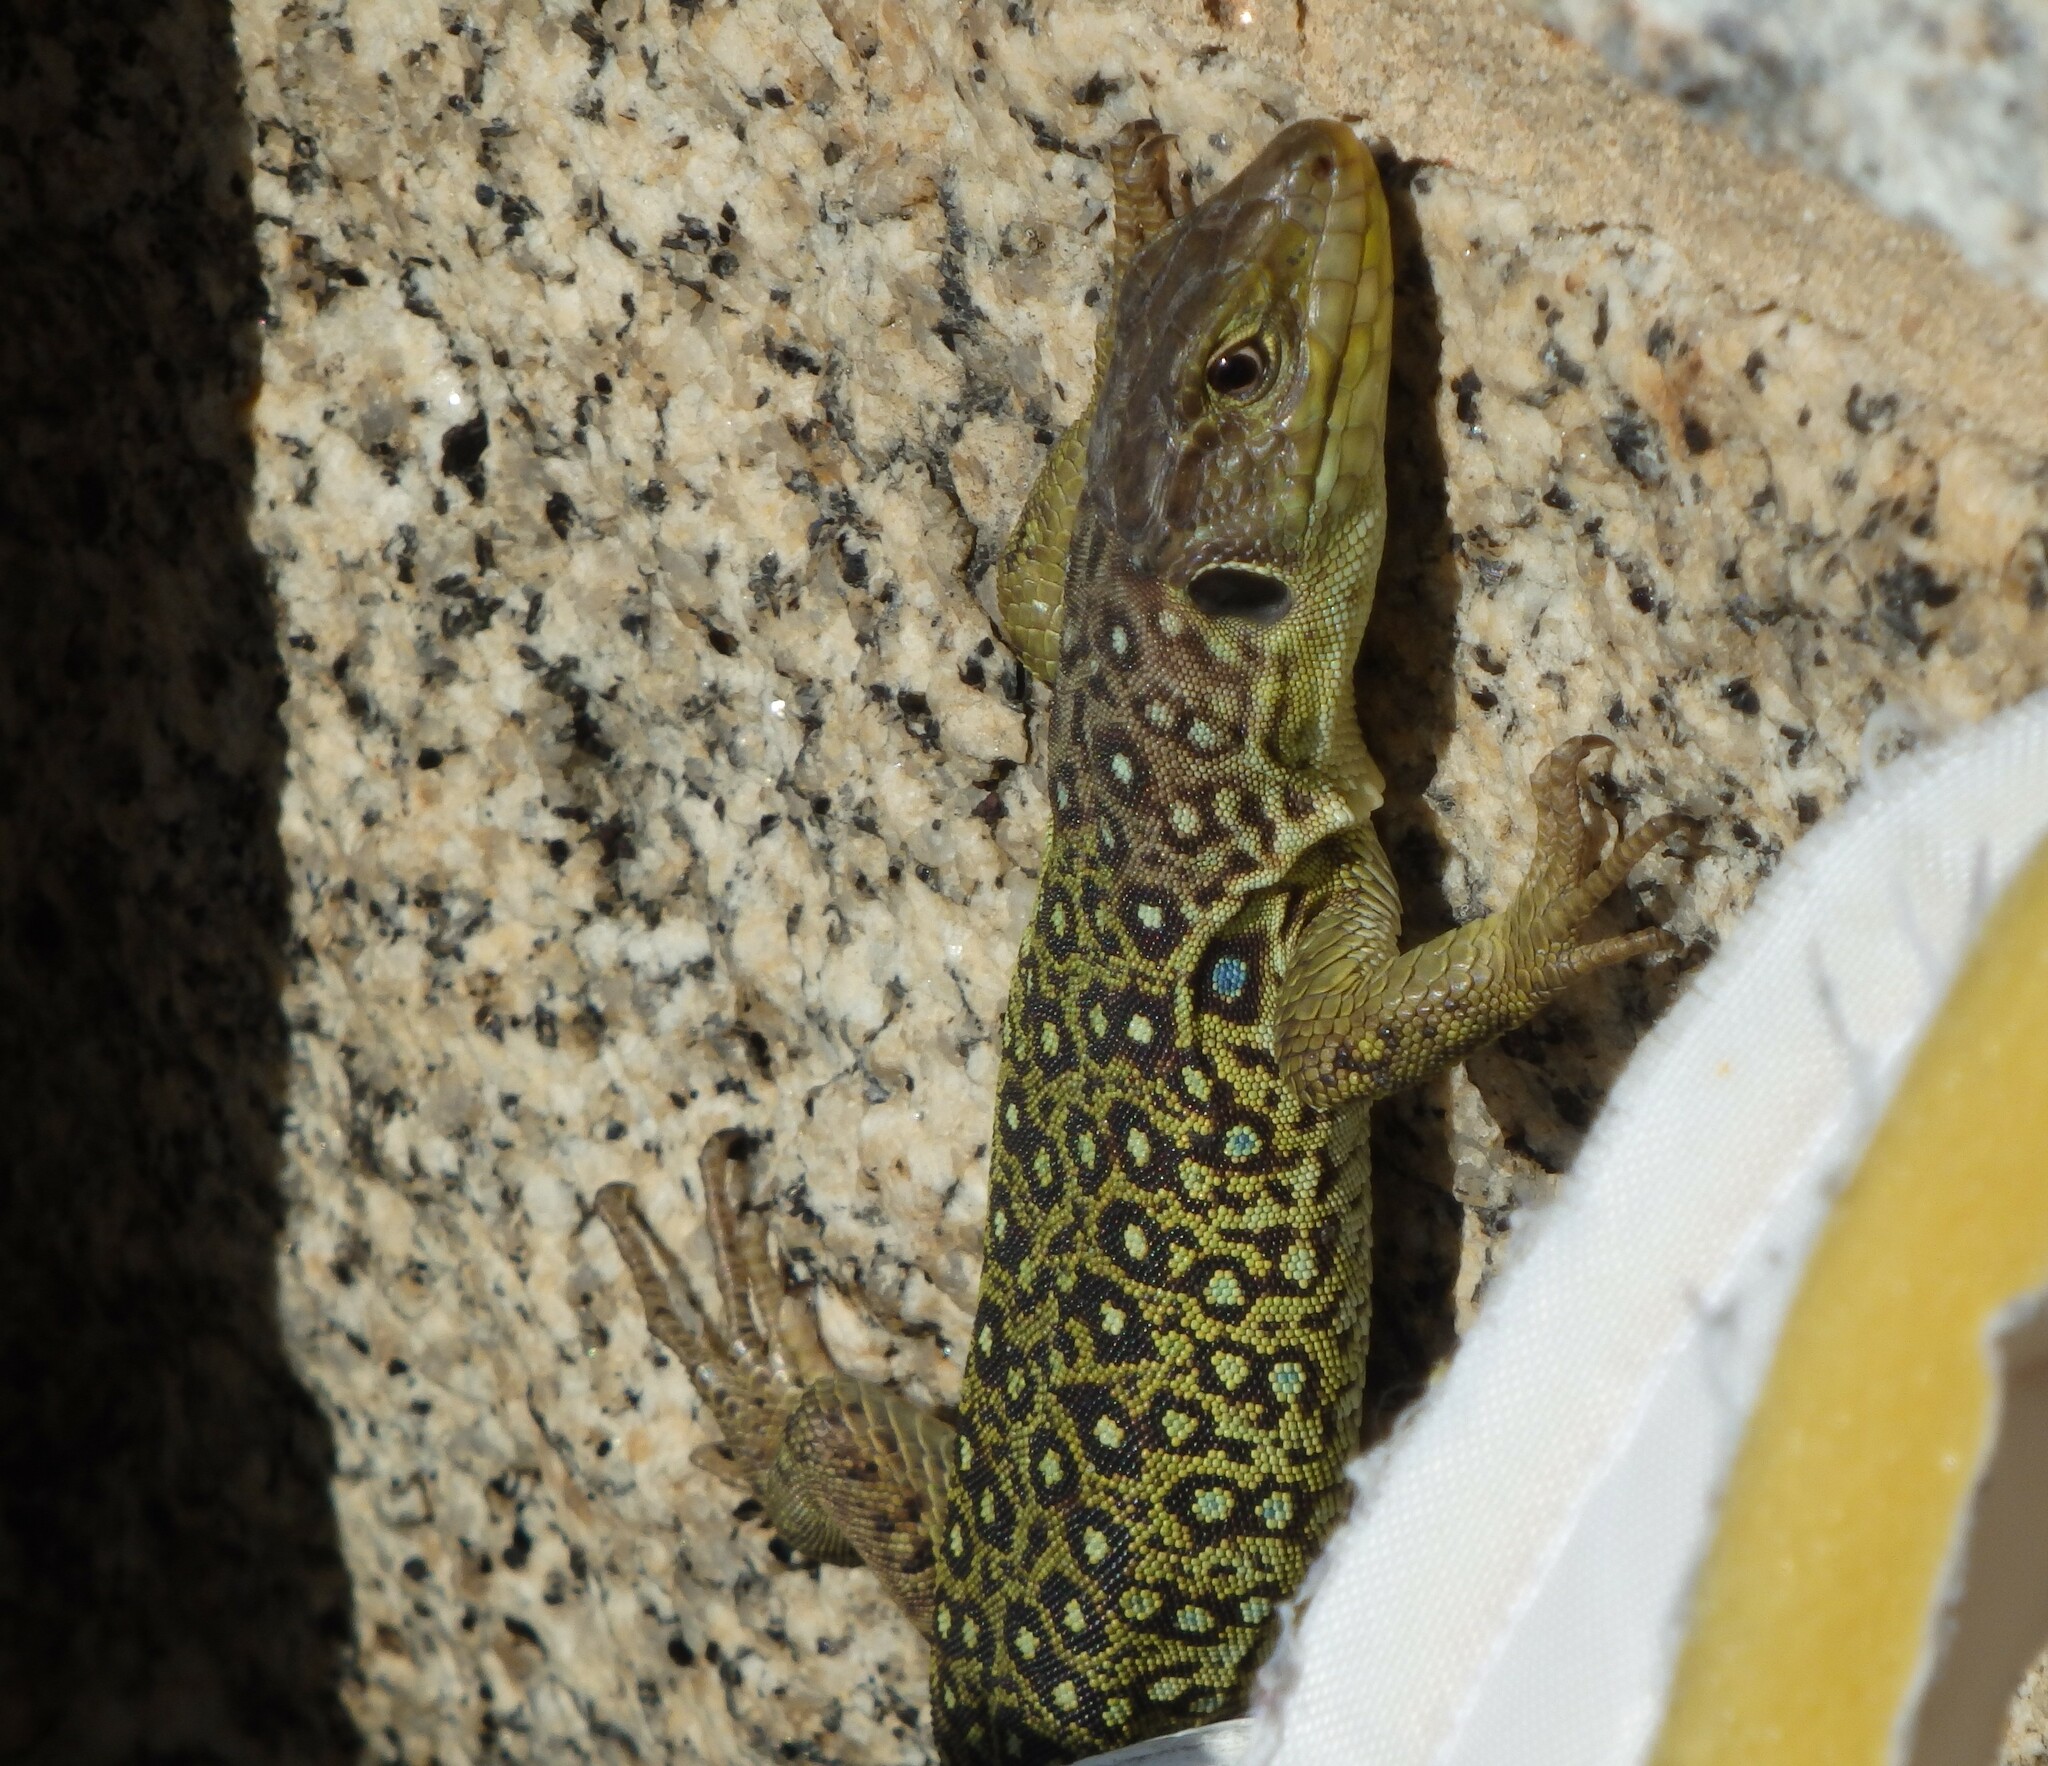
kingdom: Animalia
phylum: Chordata
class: Squamata
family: Lacertidae
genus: Timon
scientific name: Timon lepidus
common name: Ocellated lizard
